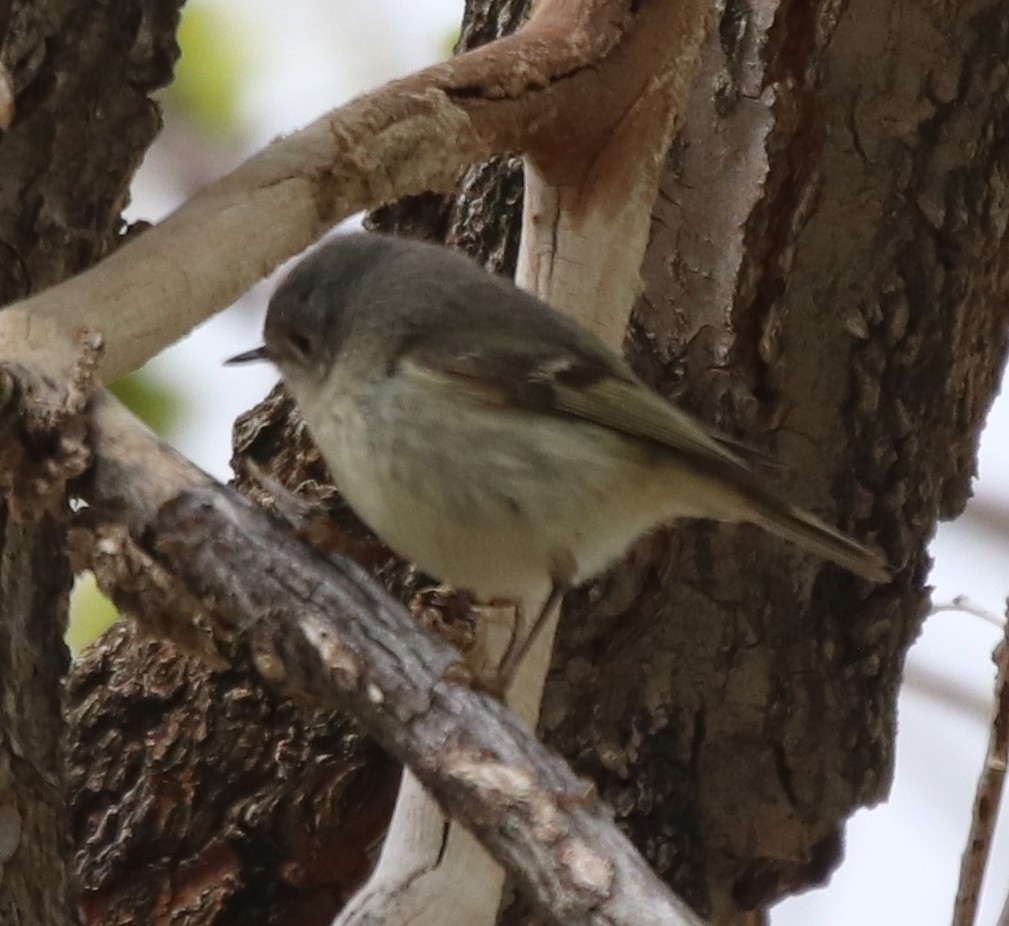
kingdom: Animalia
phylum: Chordata
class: Aves
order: Passeriformes
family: Regulidae
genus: Regulus
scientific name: Regulus calendula
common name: Ruby-crowned kinglet
